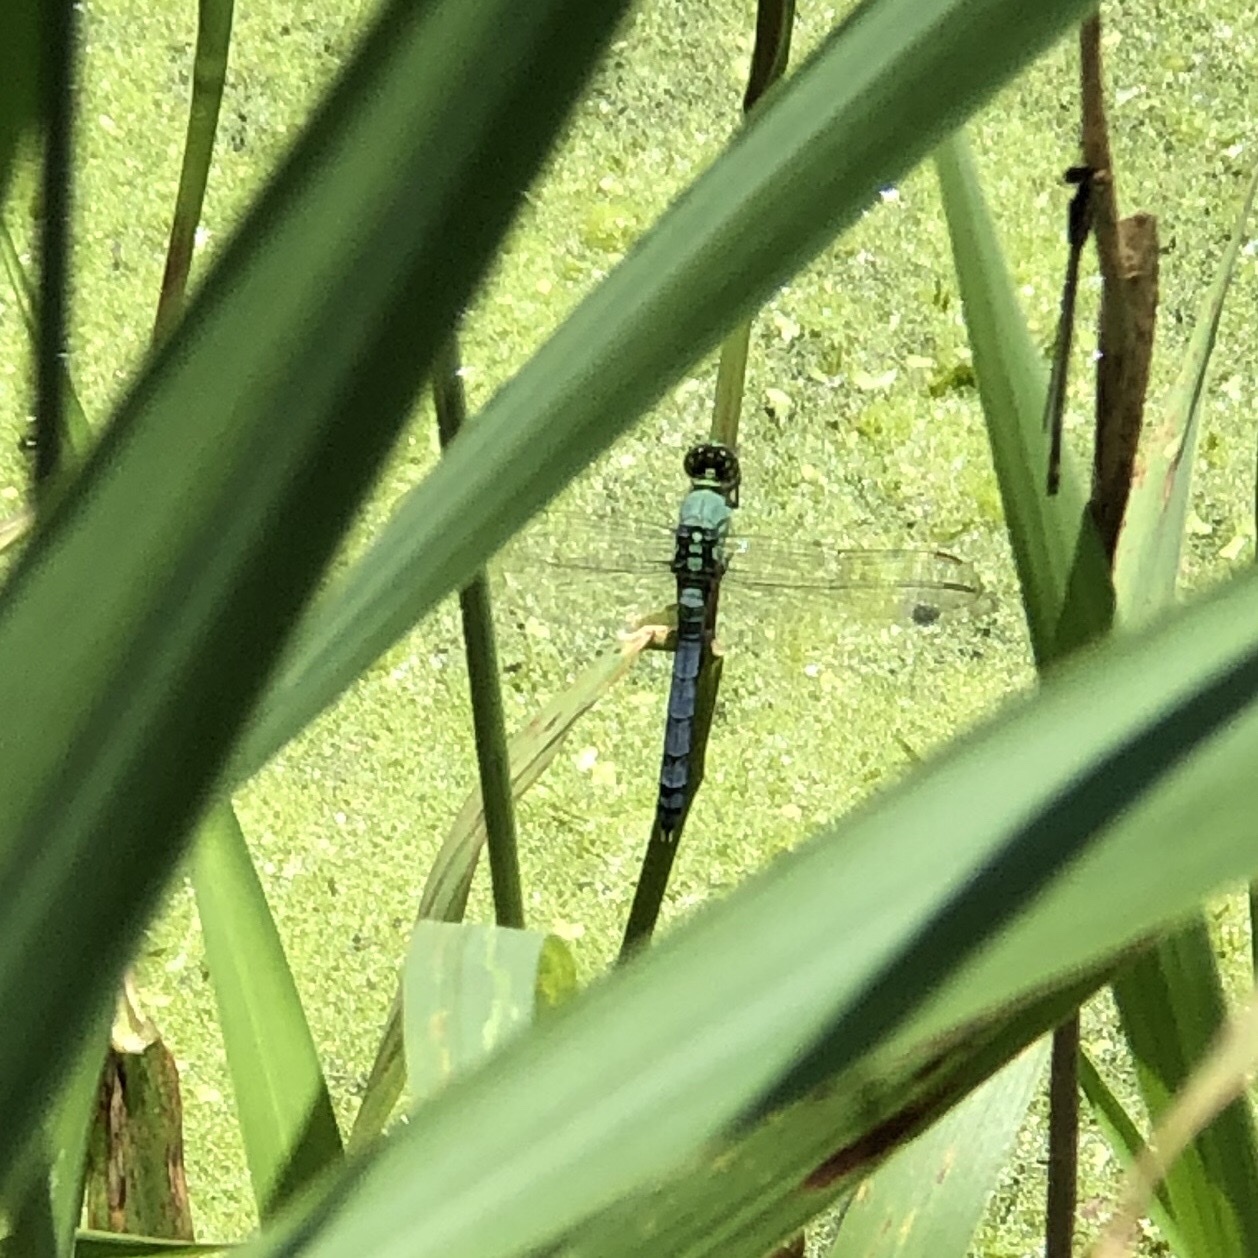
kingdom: Animalia
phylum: Arthropoda
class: Insecta
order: Odonata
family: Libellulidae
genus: Erythemis
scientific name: Erythemis simplicicollis
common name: Eastern pondhawk
